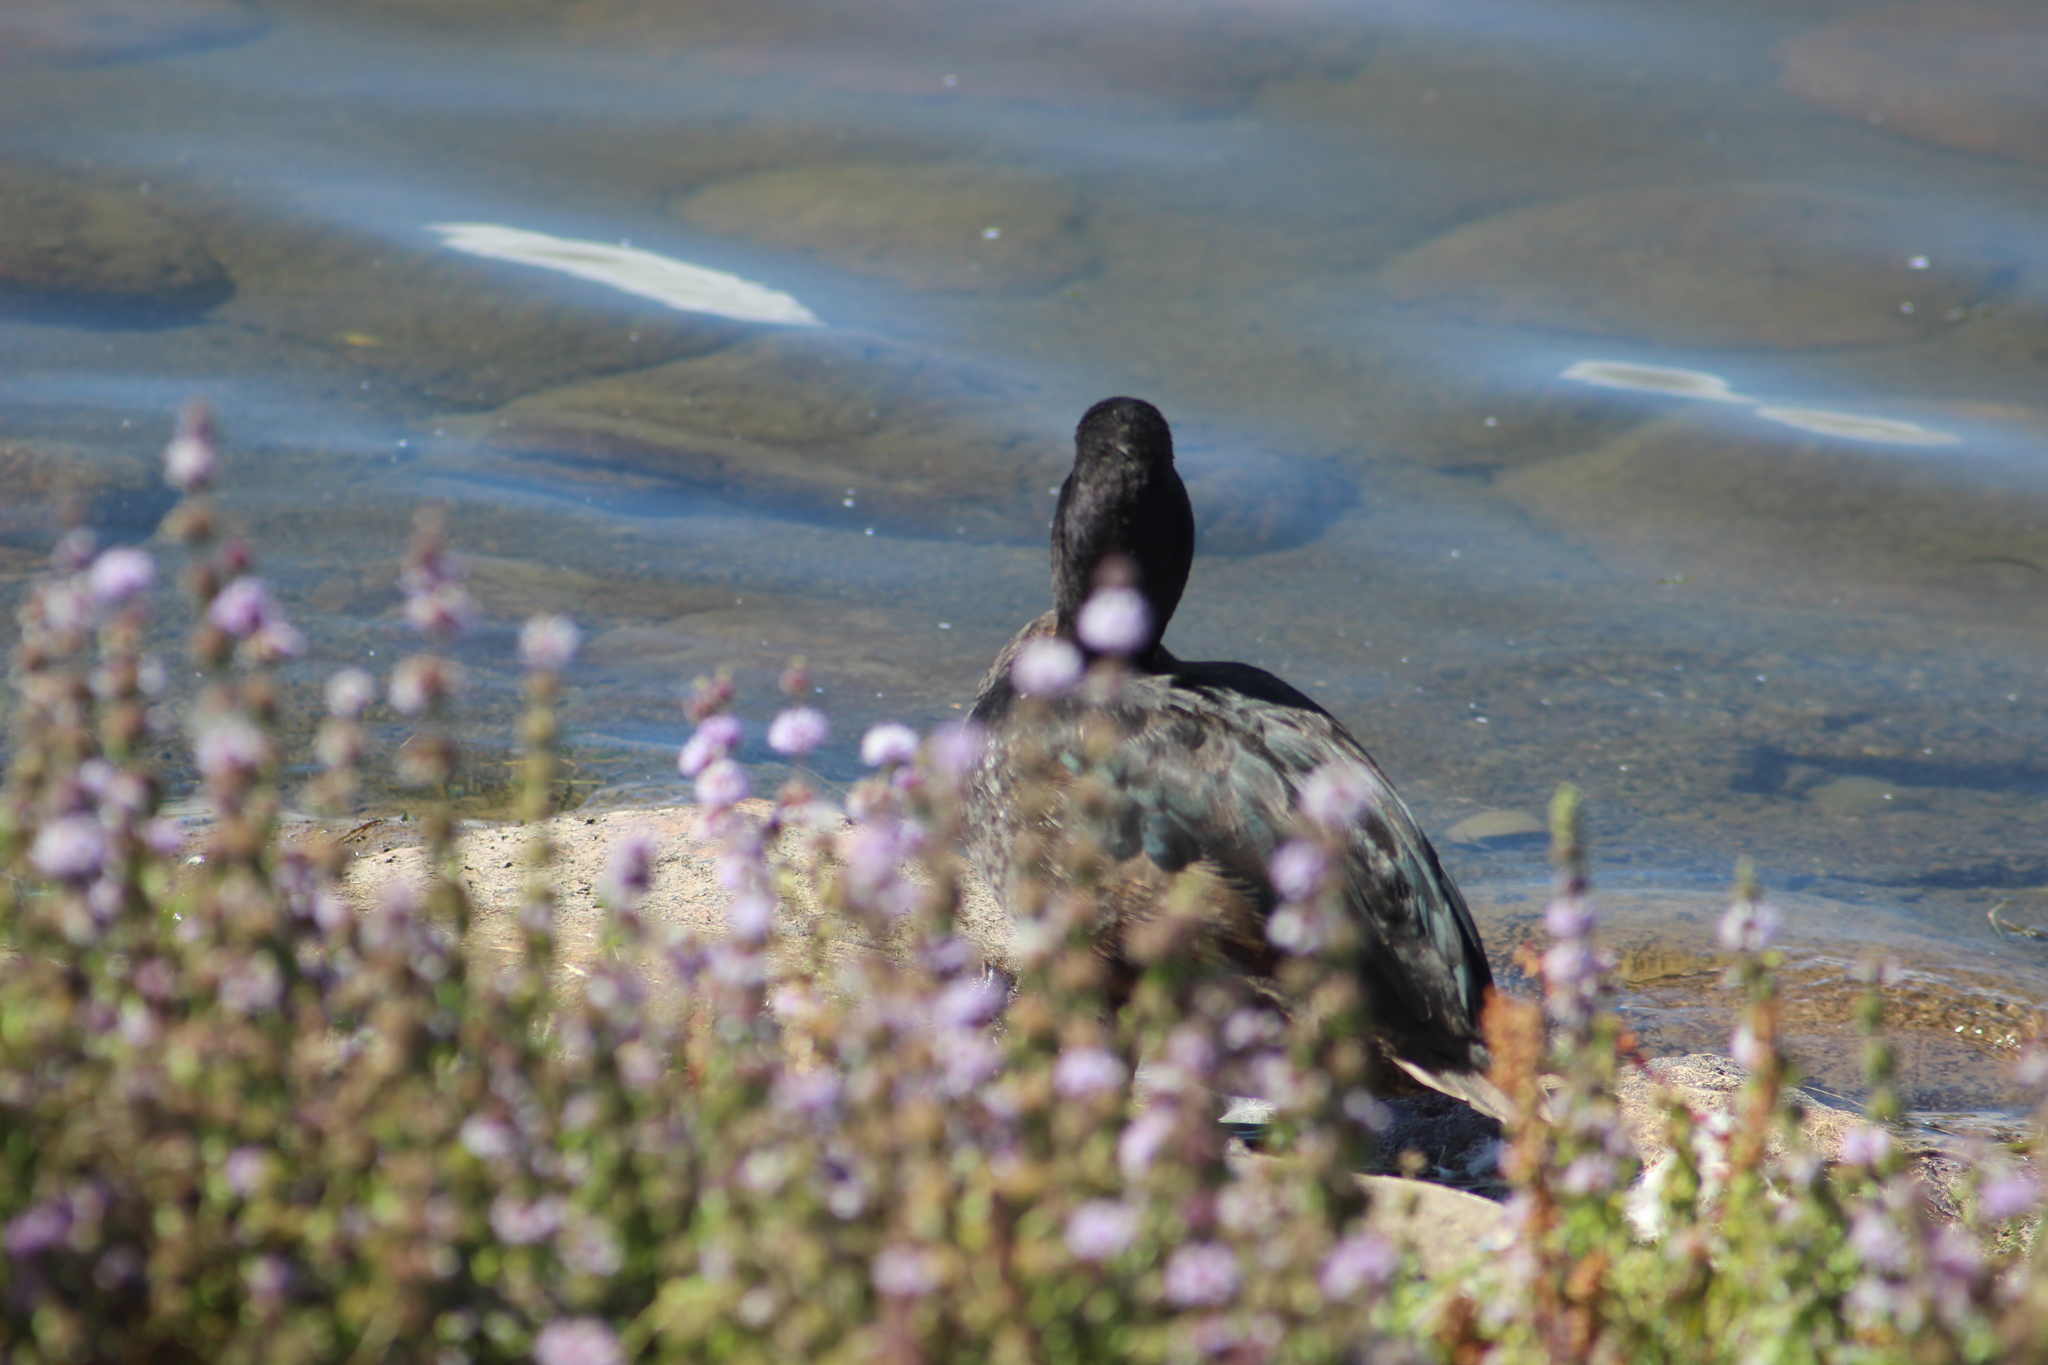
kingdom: Animalia
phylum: Chordata
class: Aves
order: Anseriformes
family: Anatidae
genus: Aythya
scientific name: Aythya novaeseelandiae
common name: New zealand scaup
